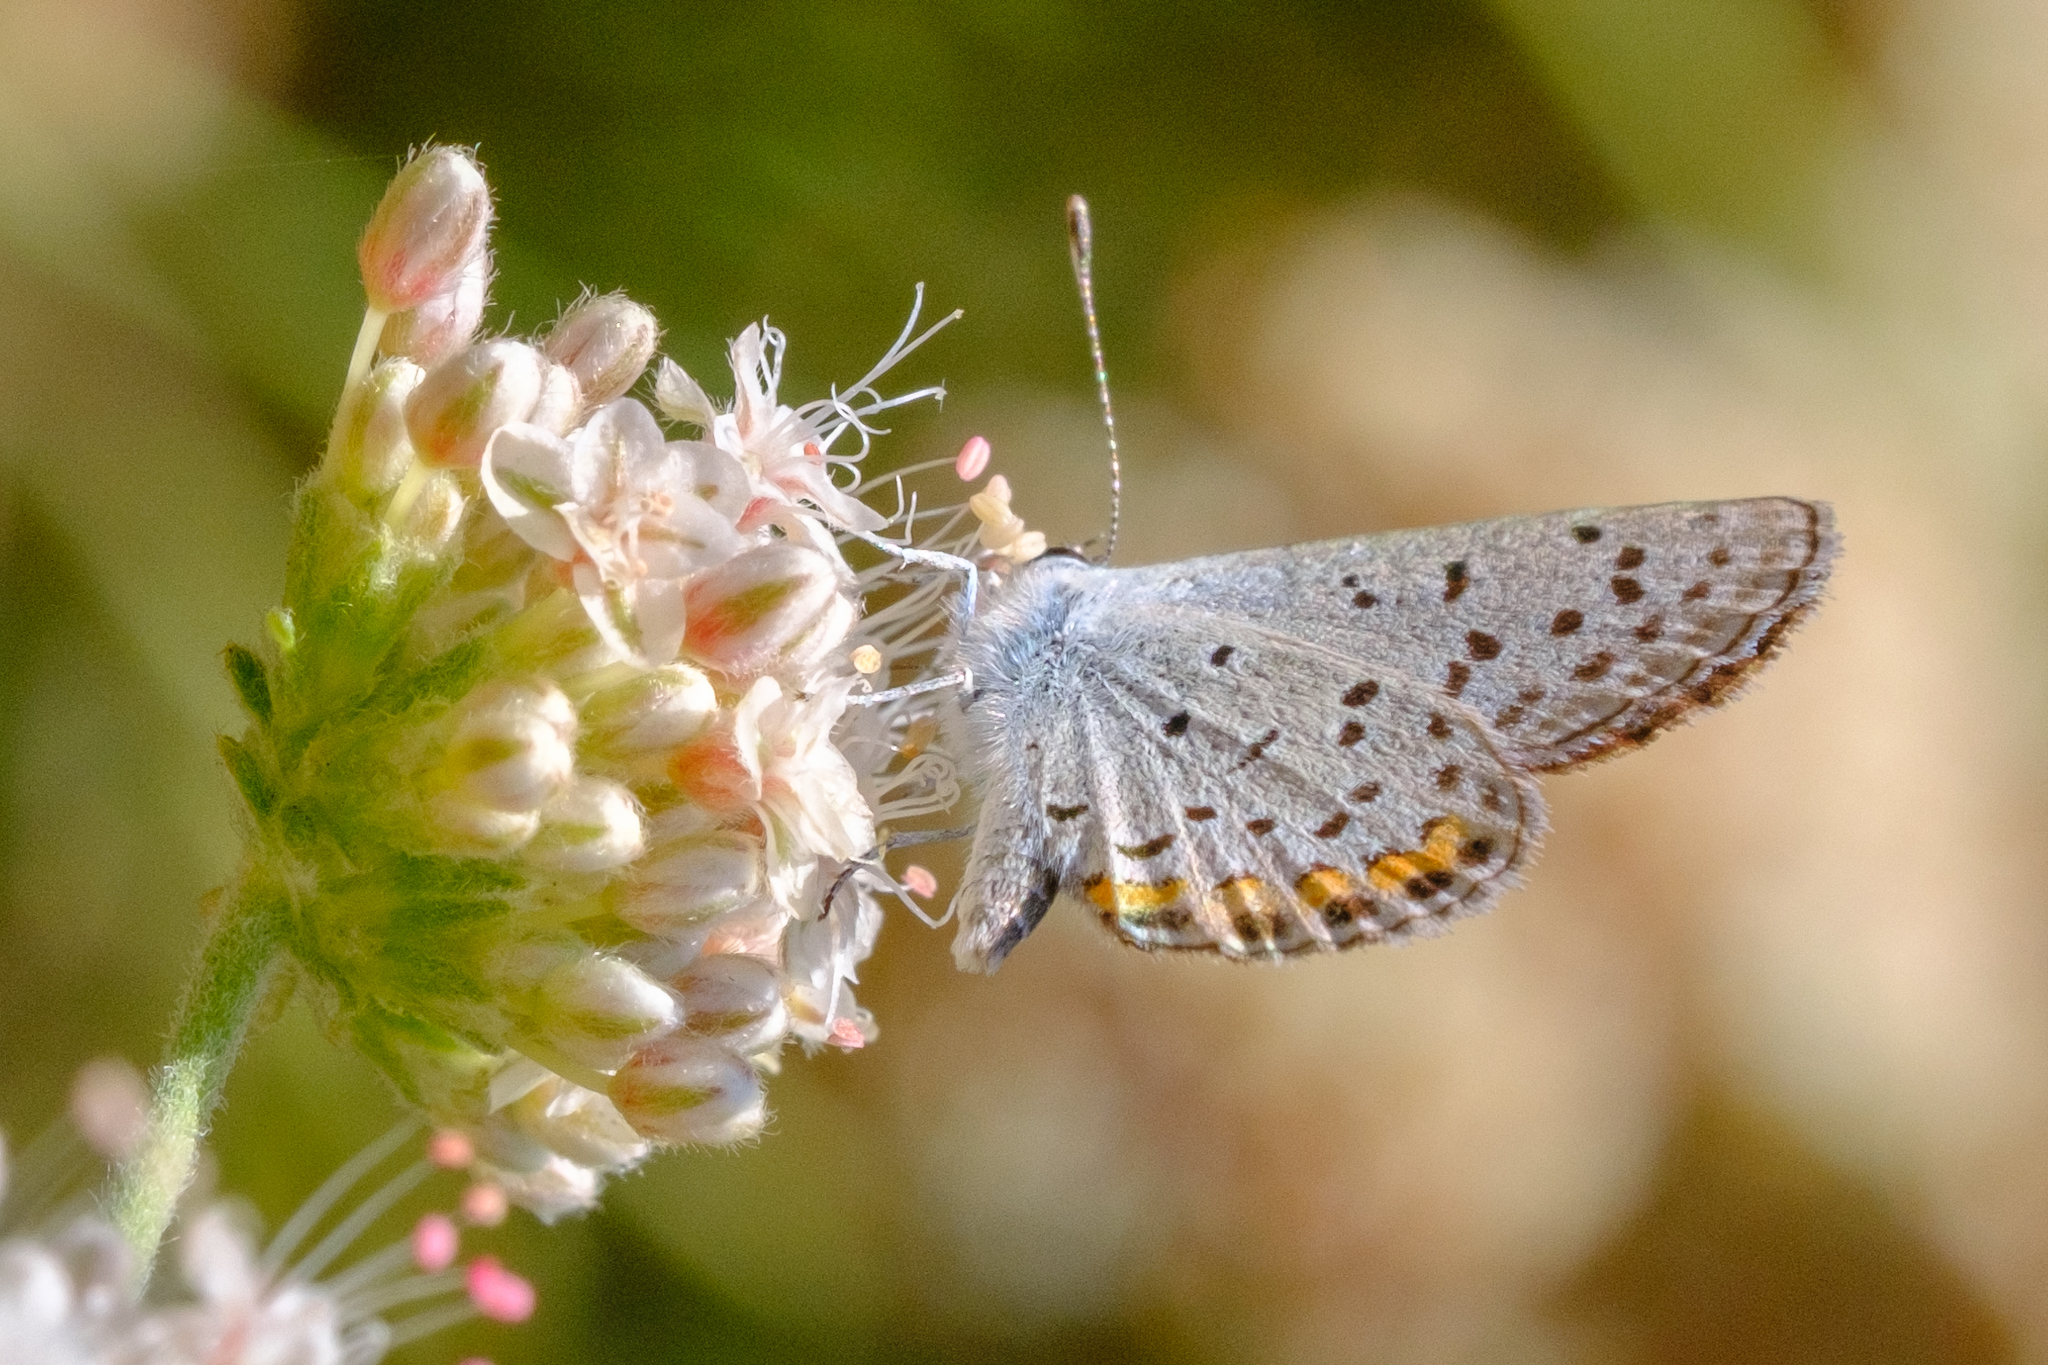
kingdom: Animalia
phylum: Arthropoda
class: Insecta
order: Lepidoptera
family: Lycaenidae
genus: Icaricia
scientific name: Icaricia acmon
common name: Acmon blue
